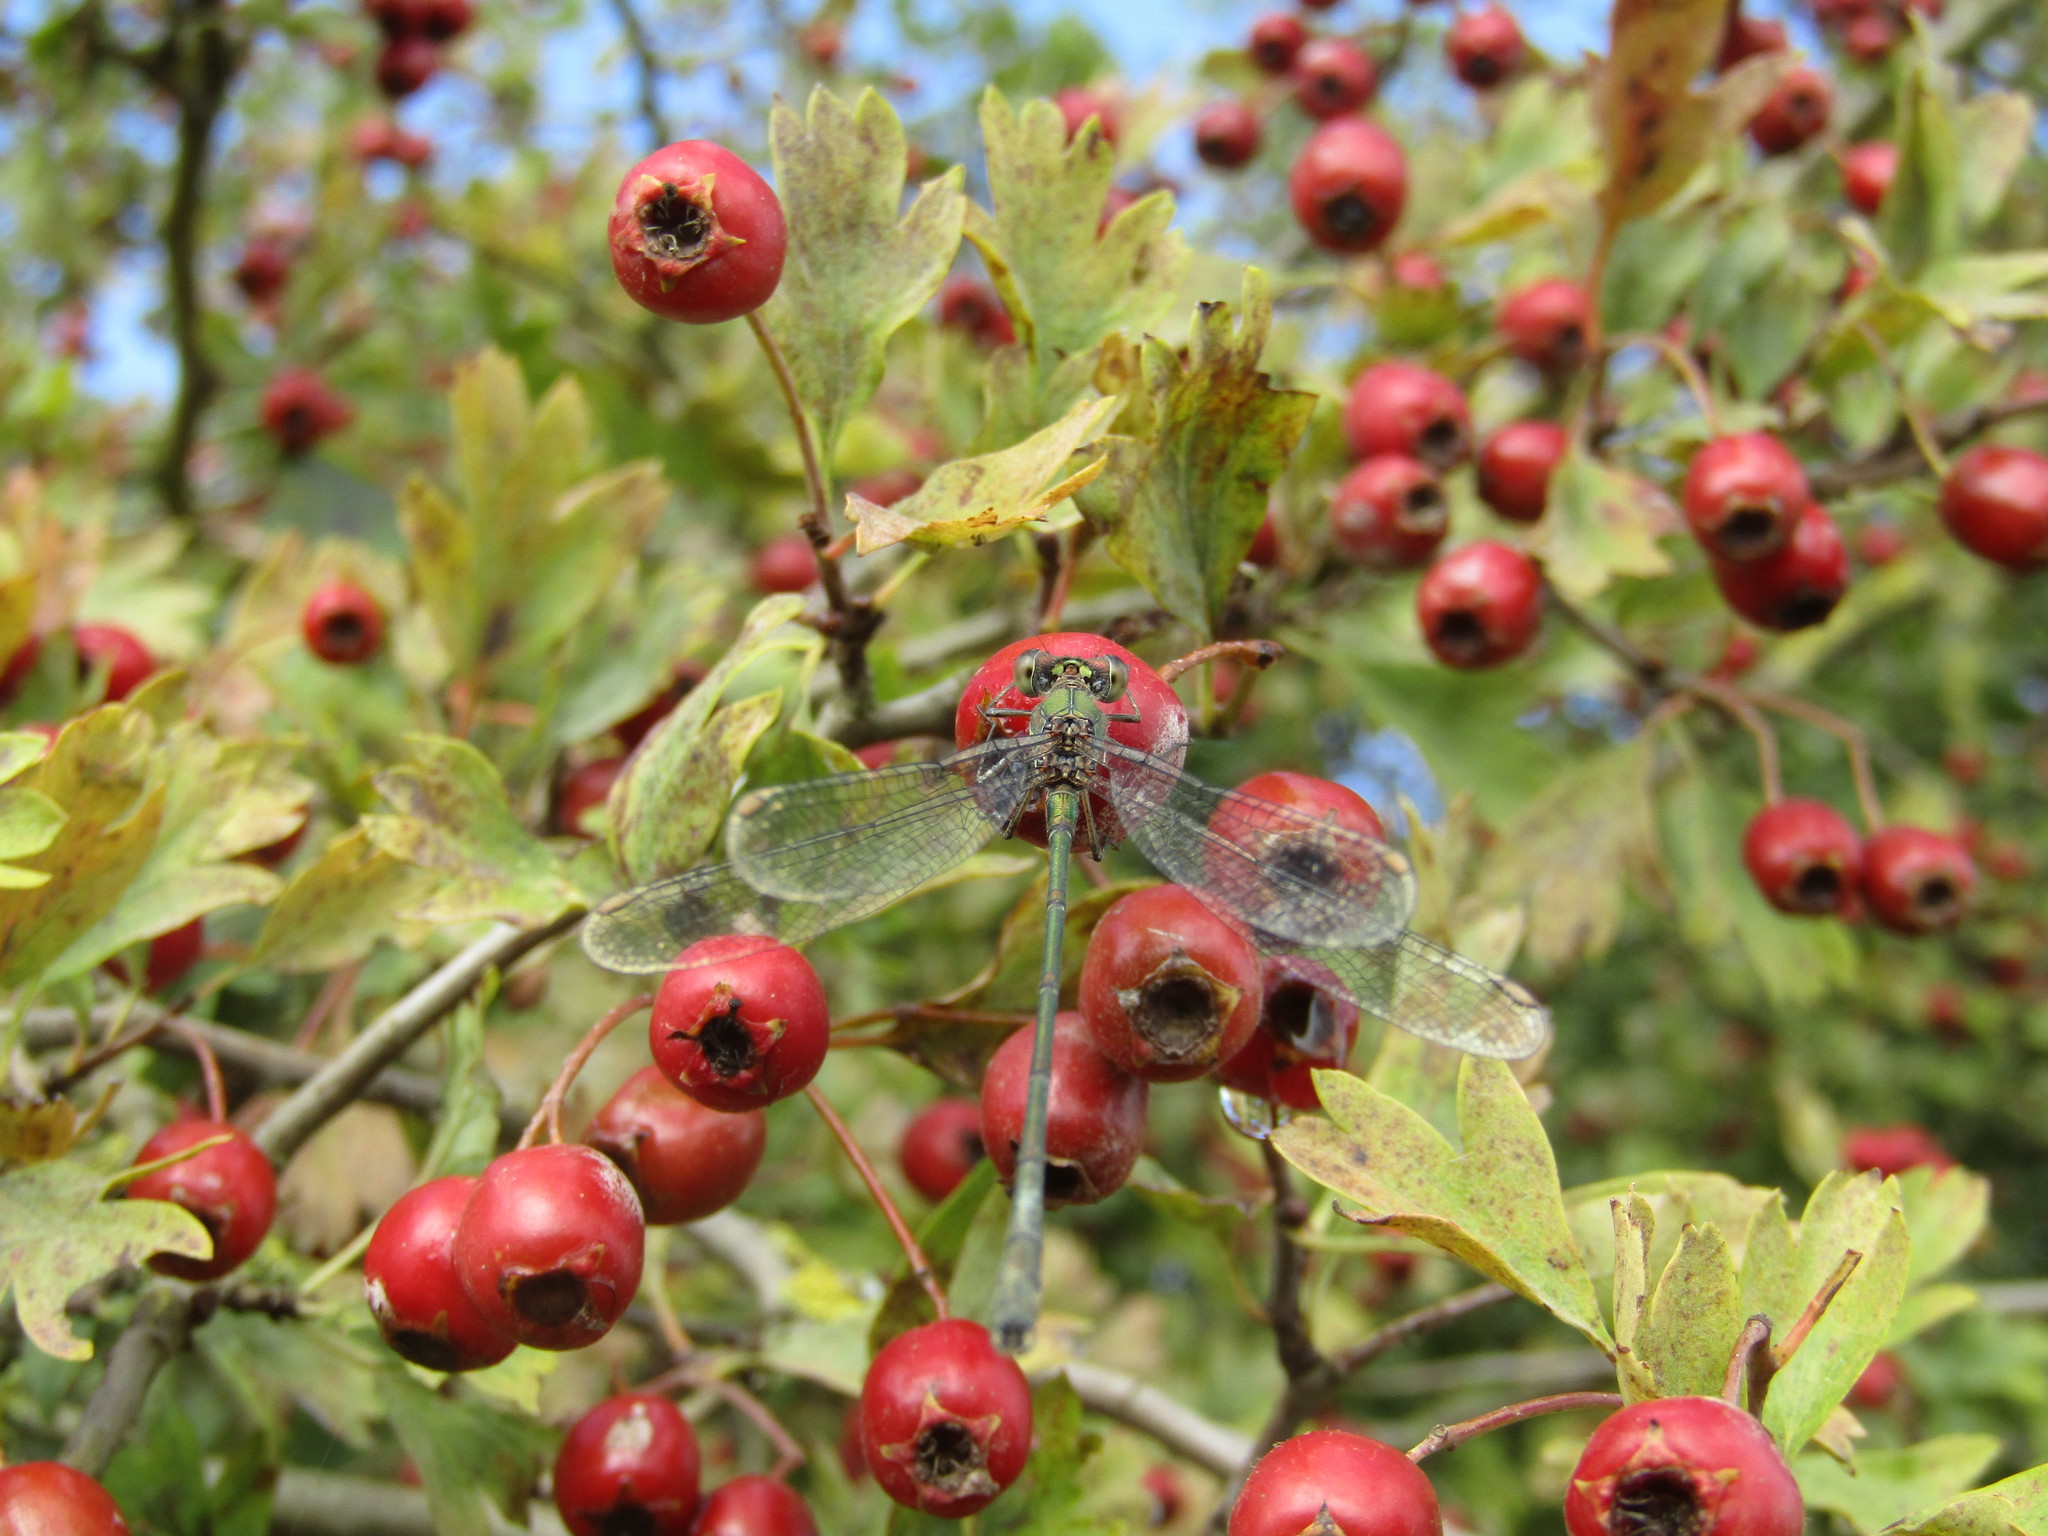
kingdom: Animalia
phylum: Arthropoda
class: Insecta
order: Odonata
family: Lestidae
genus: Chalcolestes
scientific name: Chalcolestes viridis
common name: Green emerald damselfly
